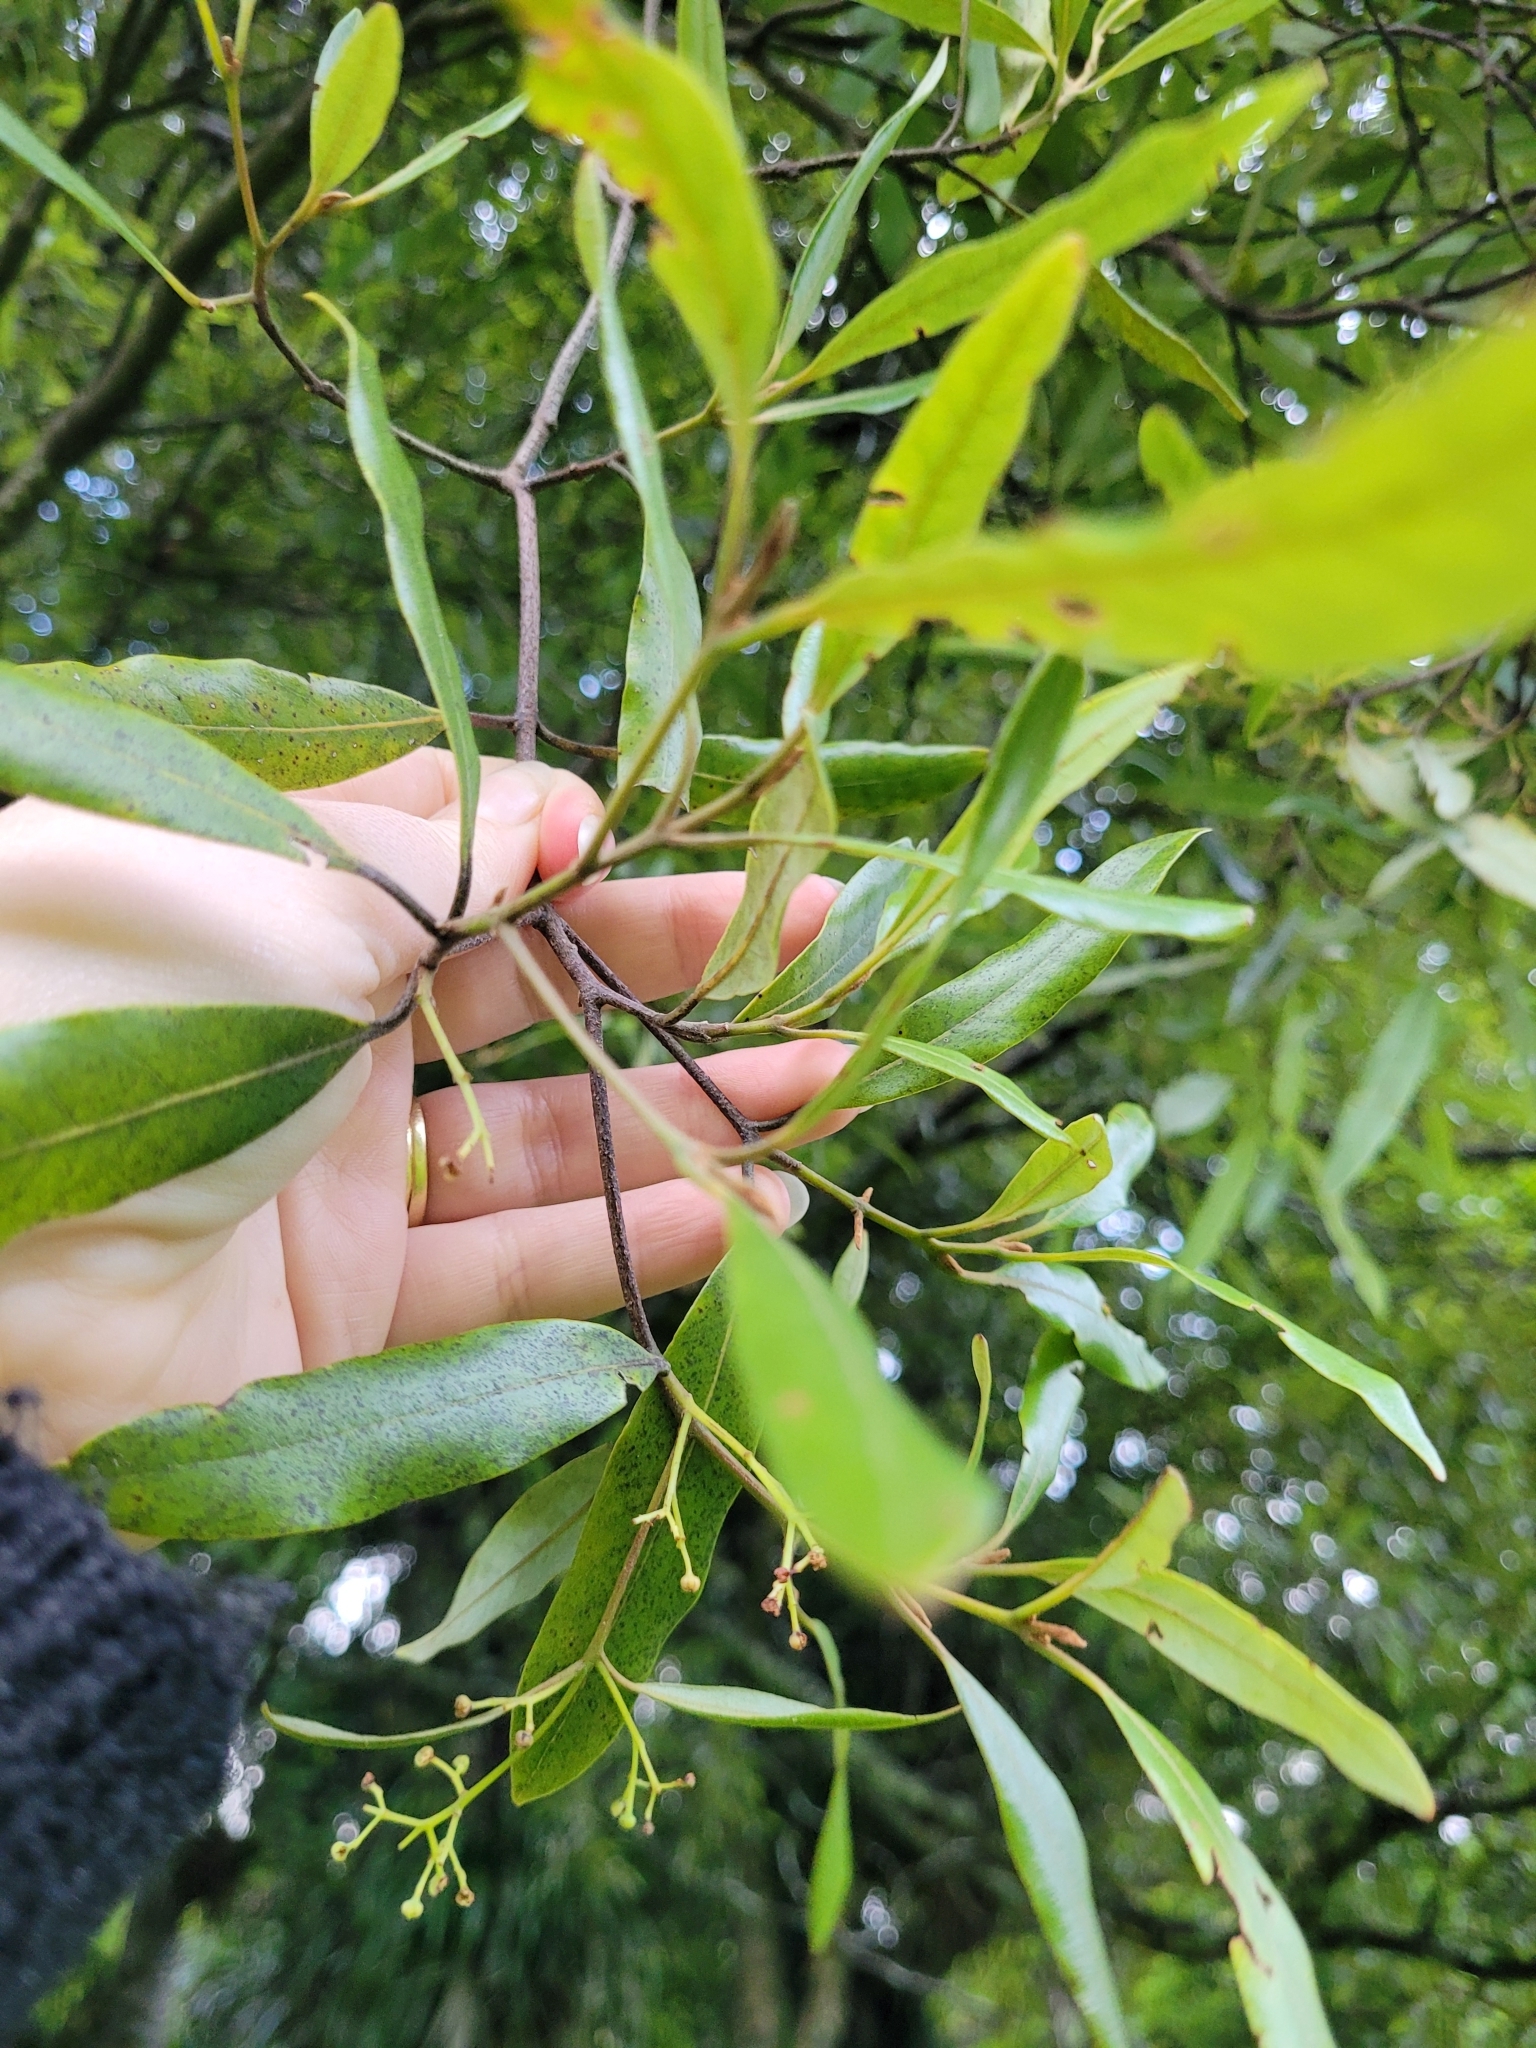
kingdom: Plantae
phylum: Tracheophyta
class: Magnoliopsida
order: Laurales
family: Lauraceae
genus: Beilschmiedia
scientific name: Beilschmiedia tawa
